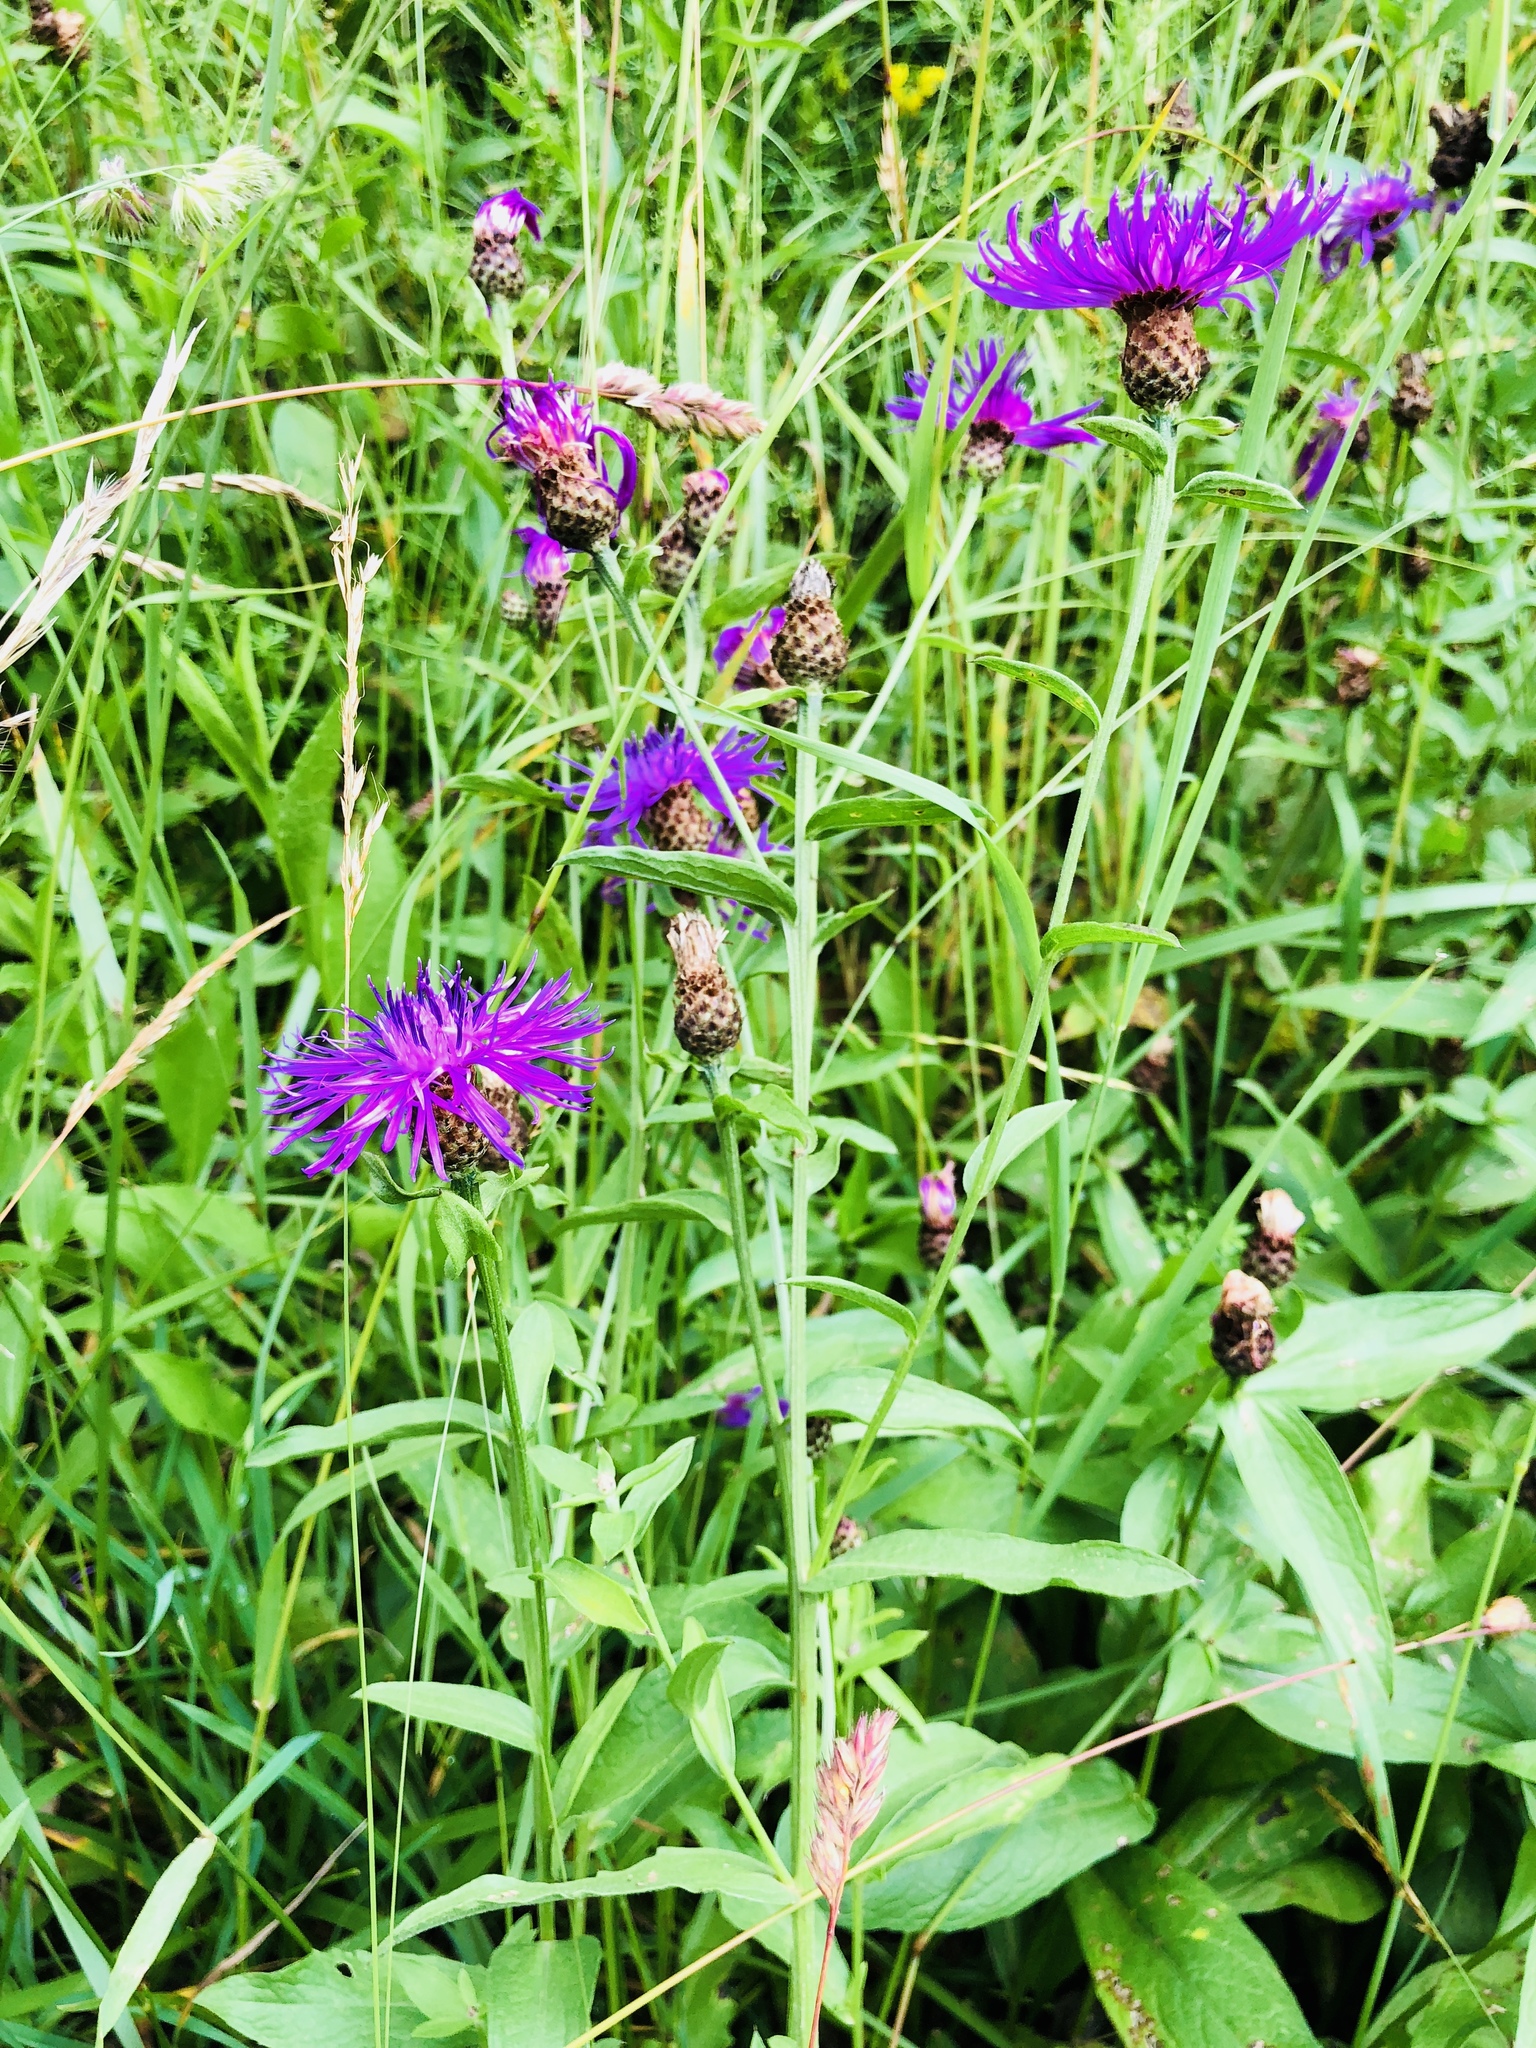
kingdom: Plantae
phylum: Tracheophyta
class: Magnoliopsida
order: Asterales
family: Asteraceae
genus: Centaurea
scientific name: Centaurea jacea
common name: Brown knapweed
